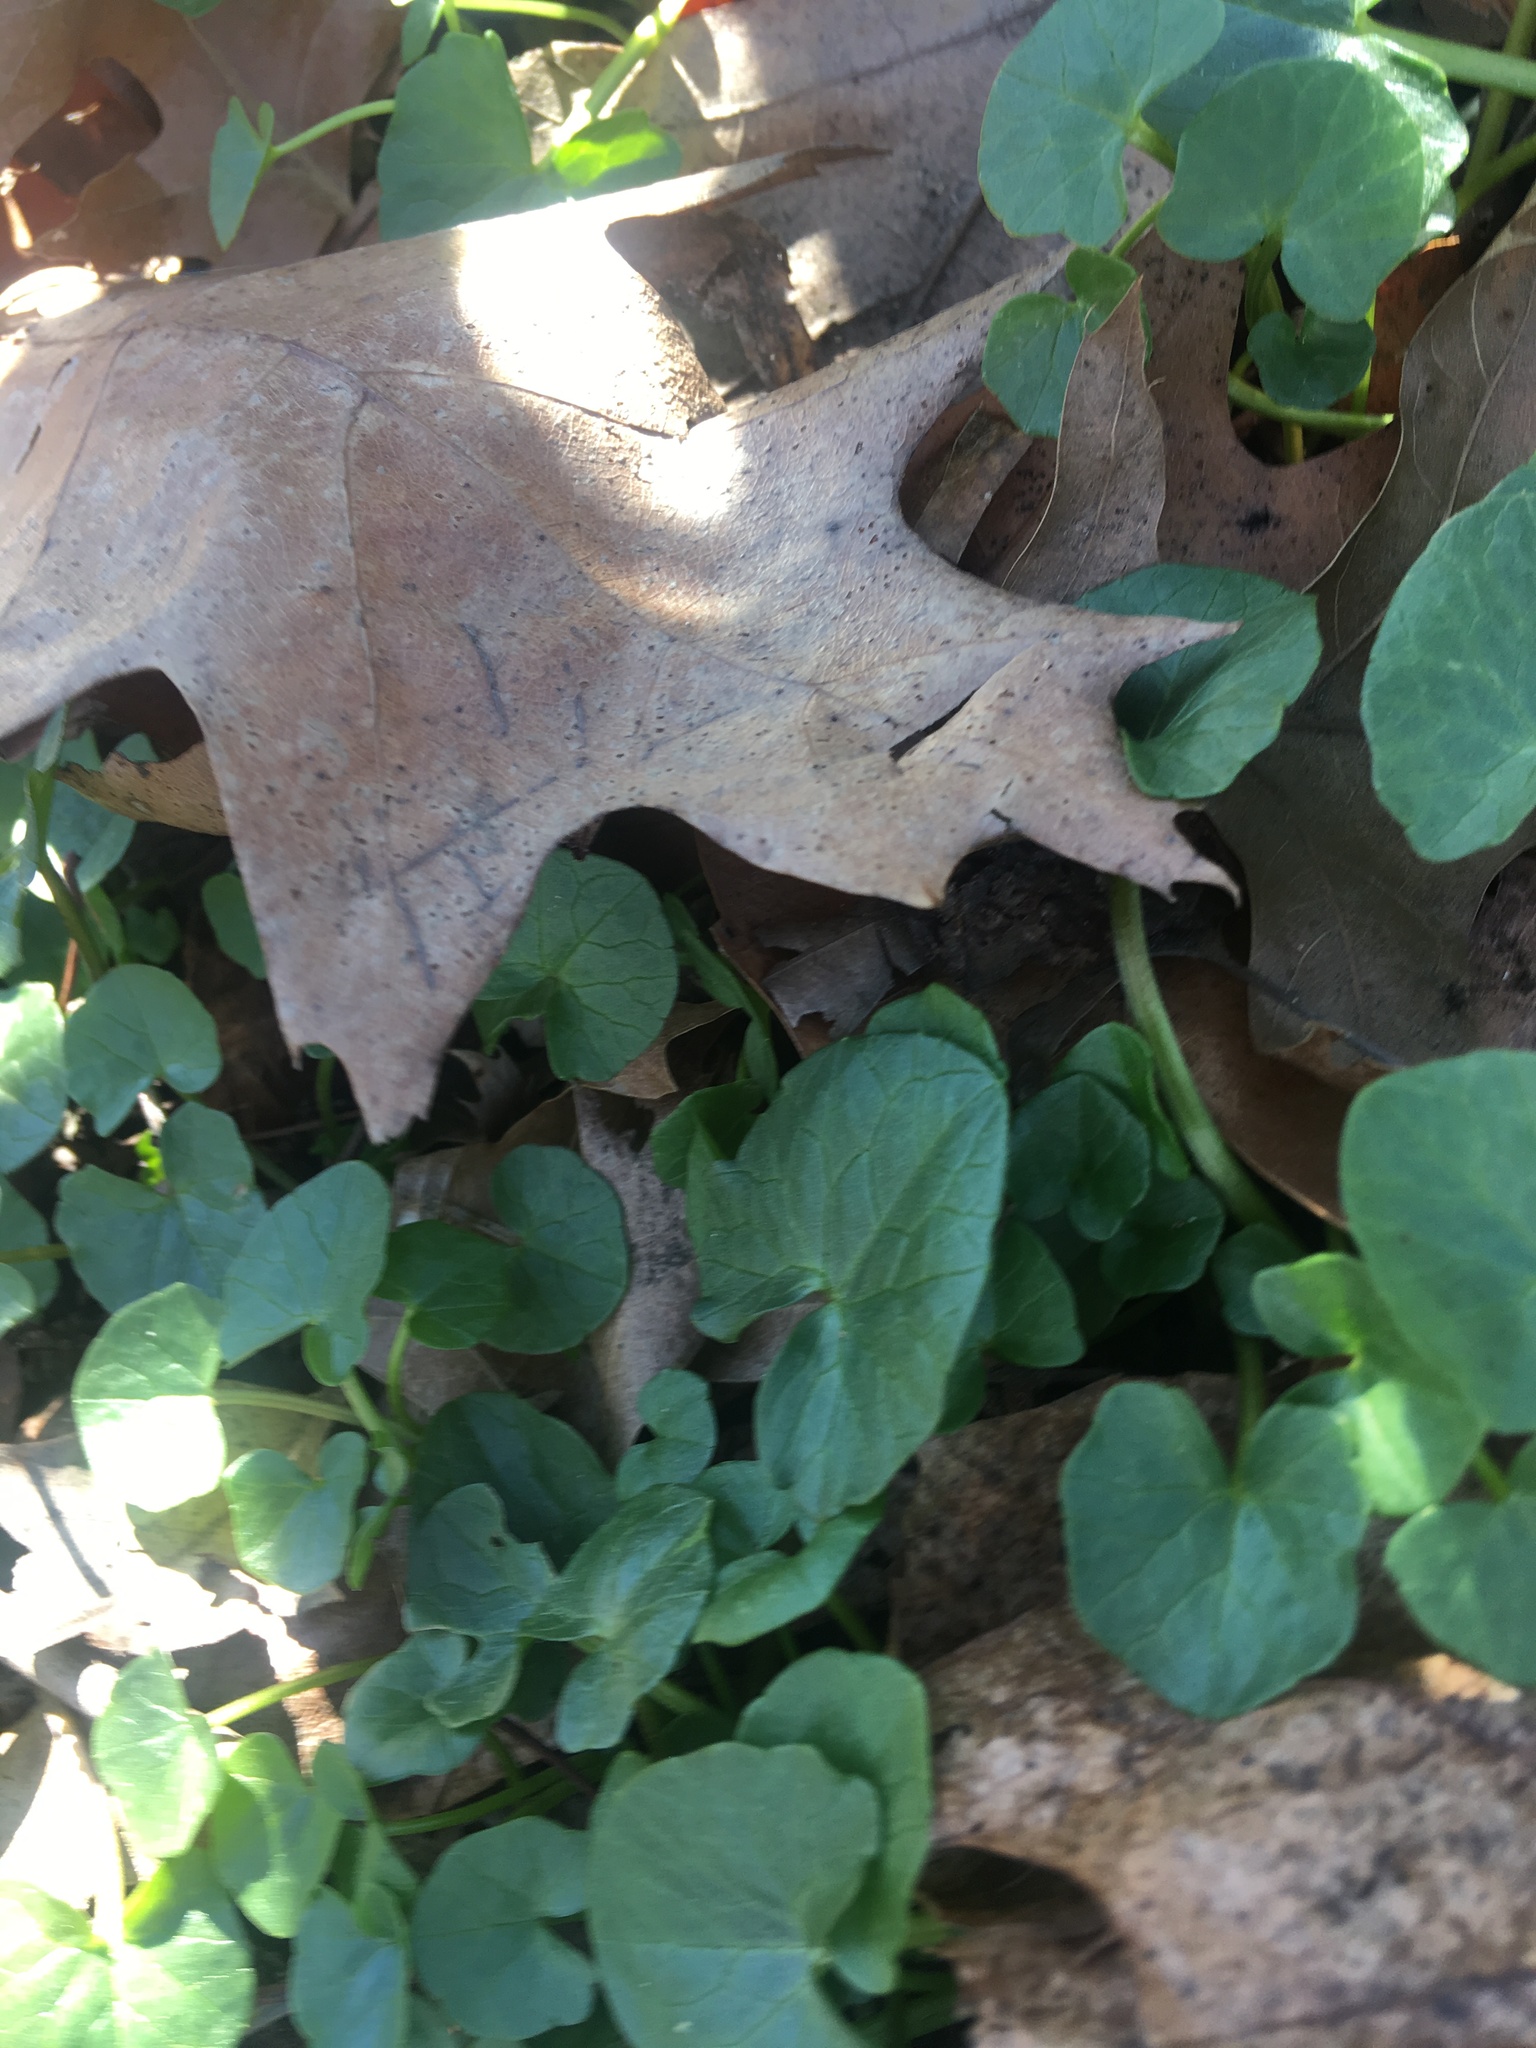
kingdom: Plantae
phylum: Tracheophyta
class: Magnoliopsida
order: Ranunculales
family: Ranunculaceae
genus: Ficaria
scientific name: Ficaria verna
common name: Lesser celandine
